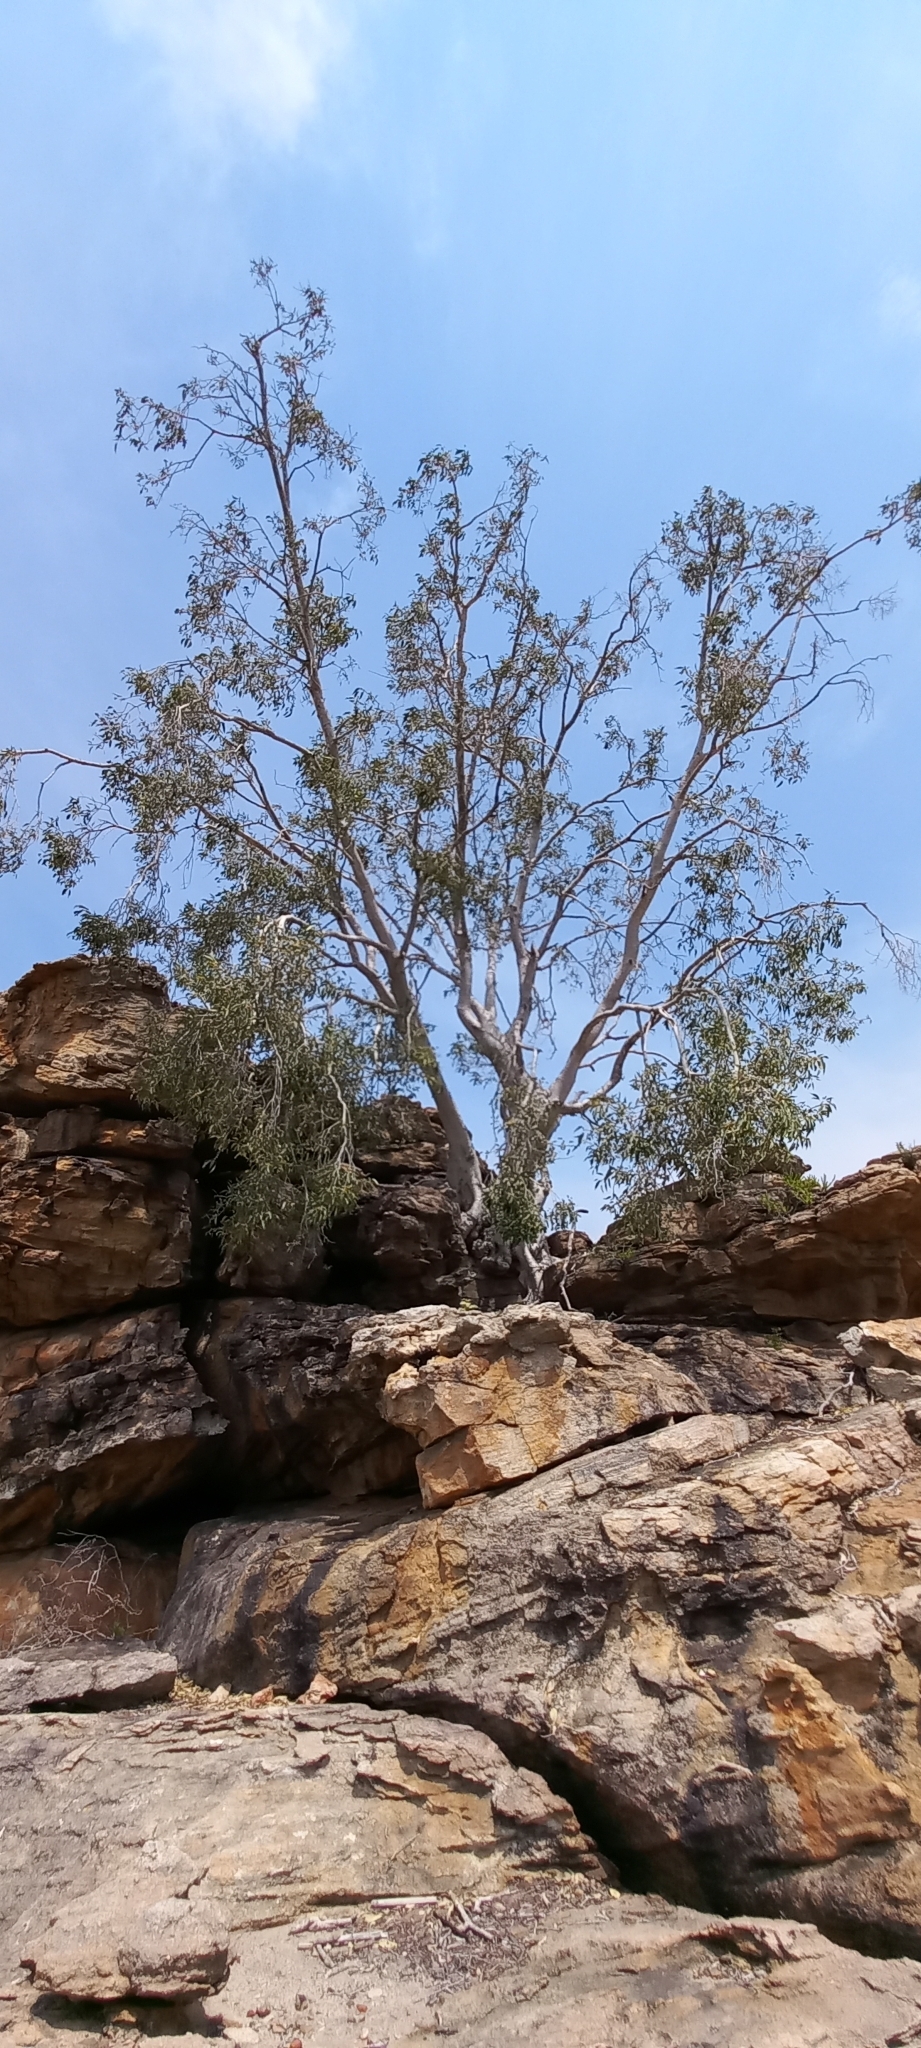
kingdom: Plantae
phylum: Tracheophyta
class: Magnoliopsida
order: Rosales
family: Moraceae
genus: Ficus
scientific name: Ficus cordata
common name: Namaqua rock fig
